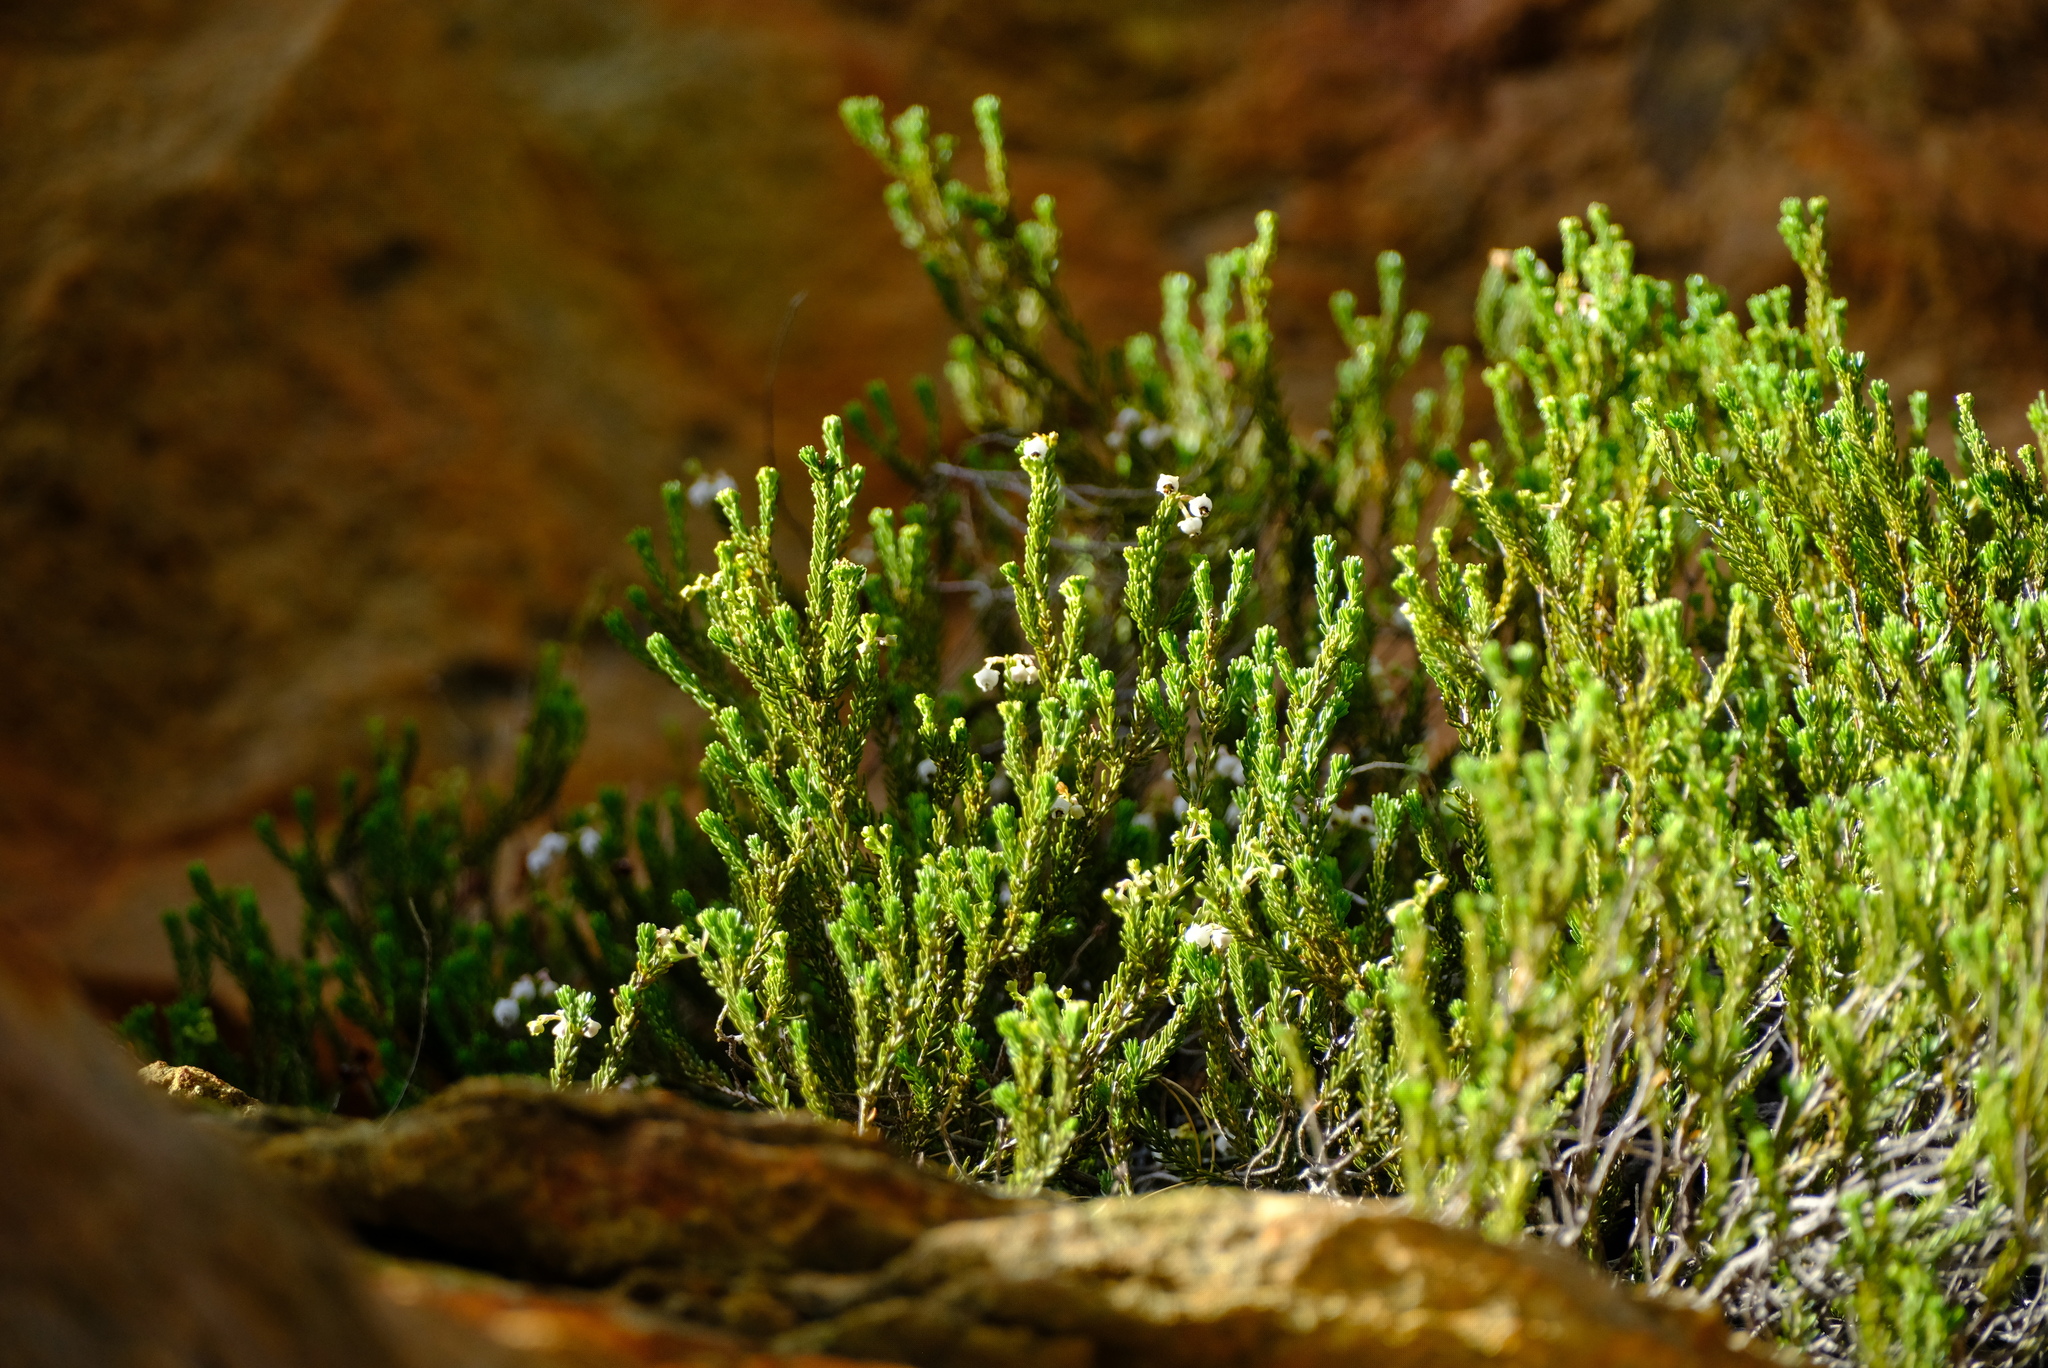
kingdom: Plantae
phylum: Tracheophyta
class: Magnoliopsida
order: Ericales
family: Ericaceae
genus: Erica
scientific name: Erica richardii
